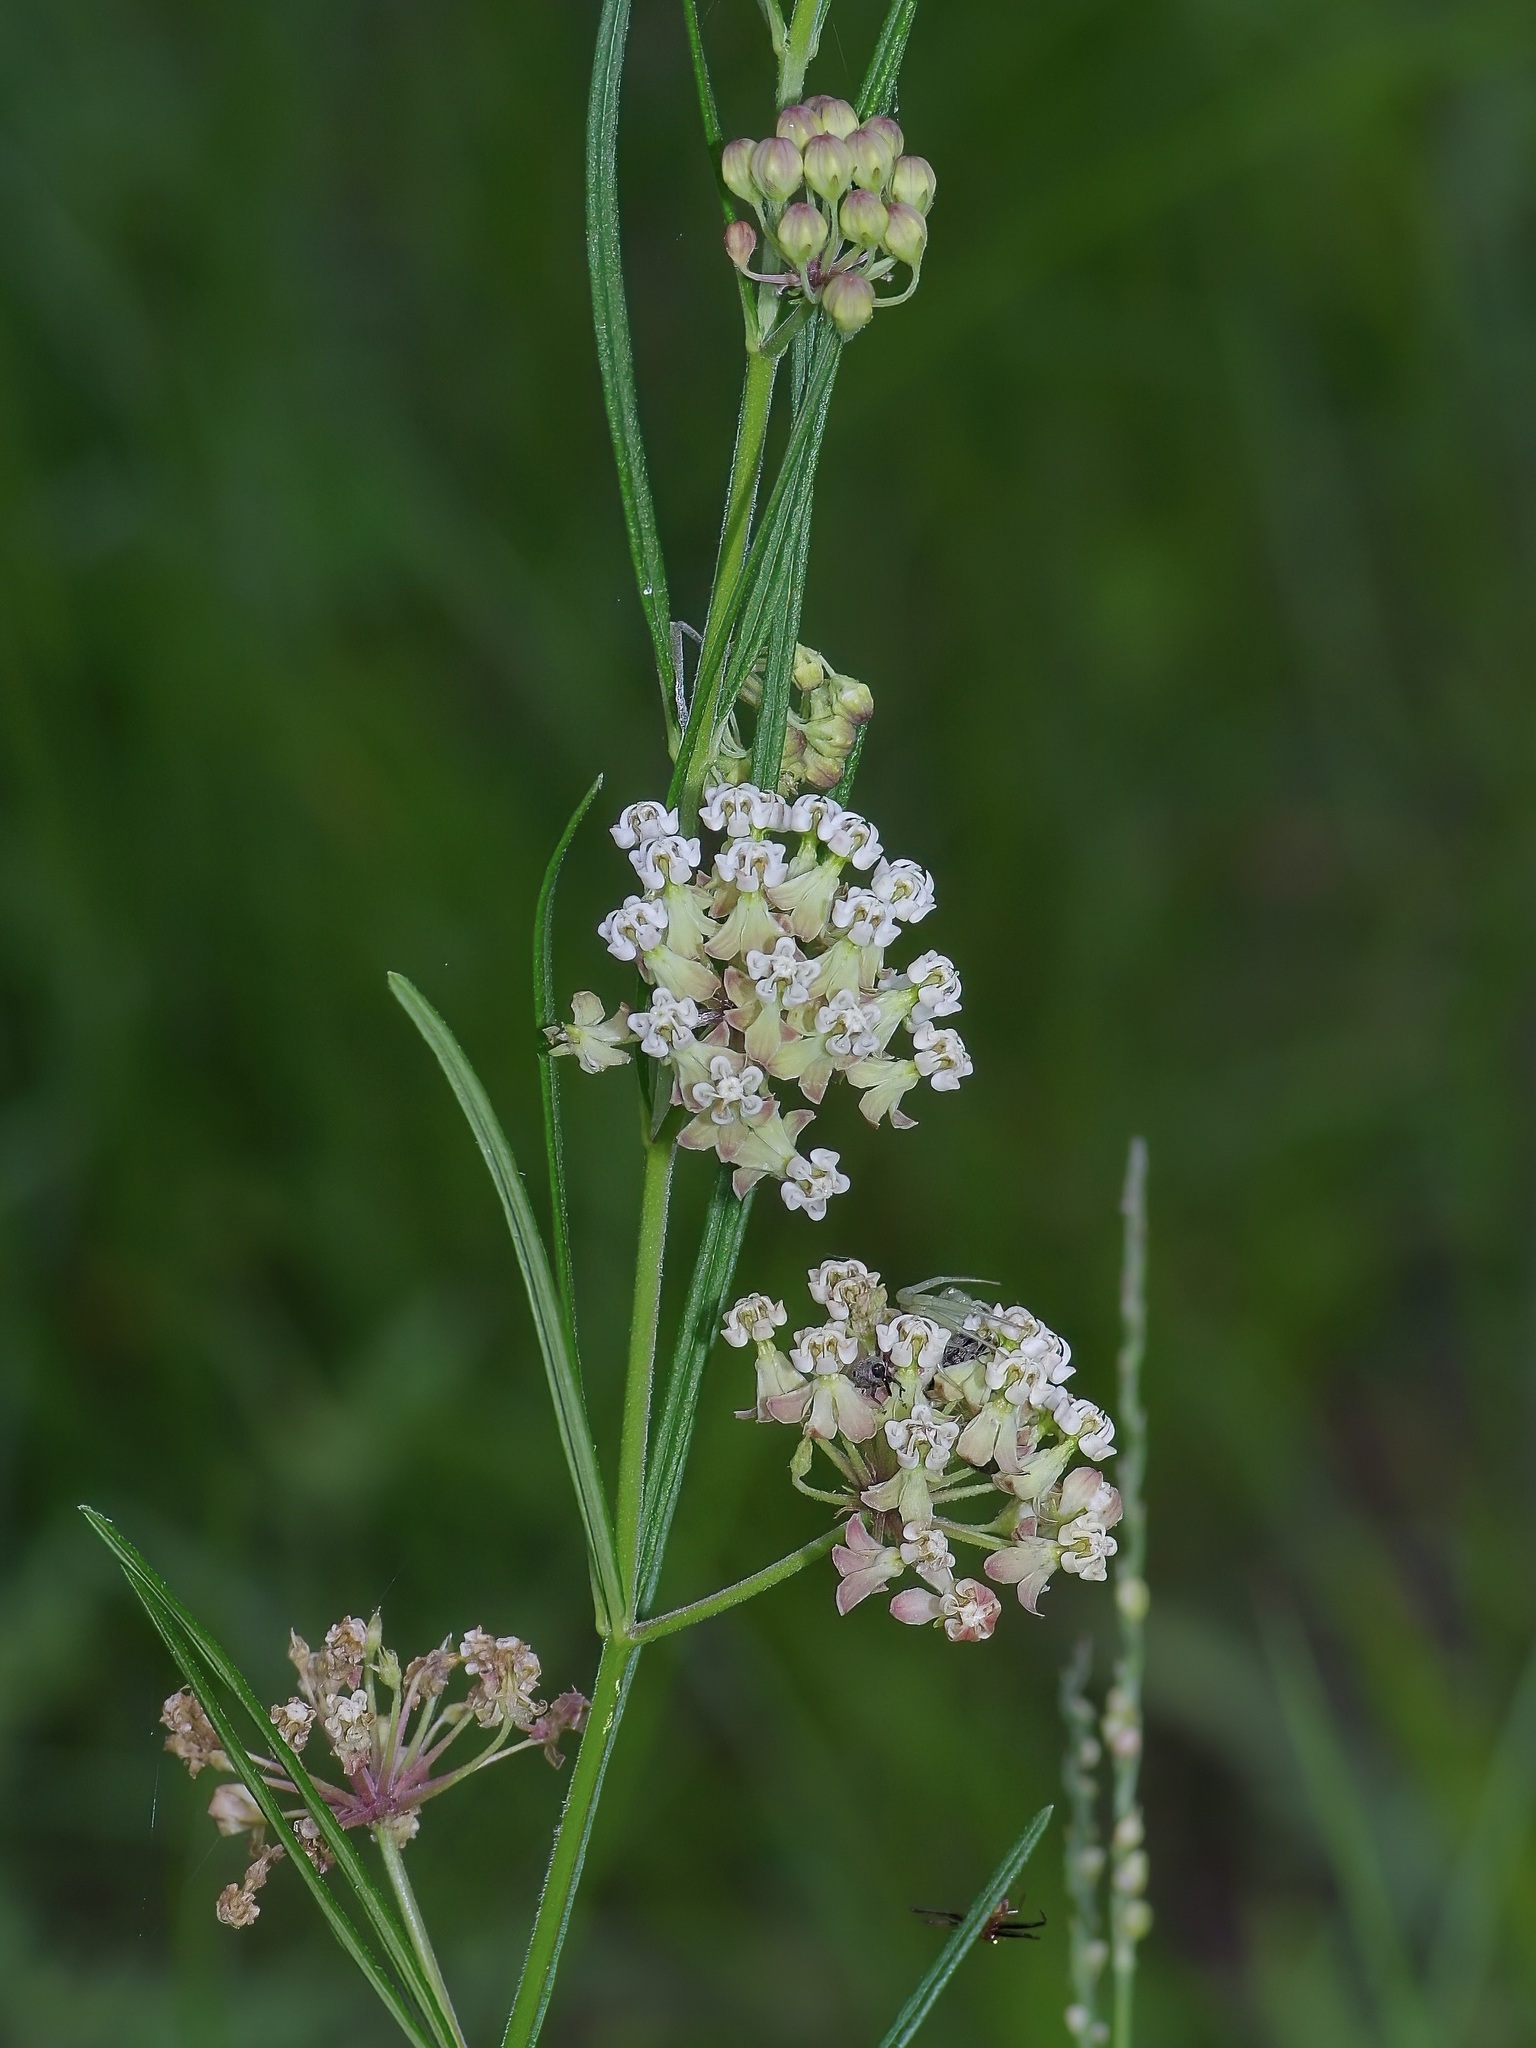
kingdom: Plantae
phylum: Tracheophyta
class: Magnoliopsida
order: Gentianales
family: Apocynaceae
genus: Asclepias
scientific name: Asclepias verticillata
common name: Eastern whorled milkweed
